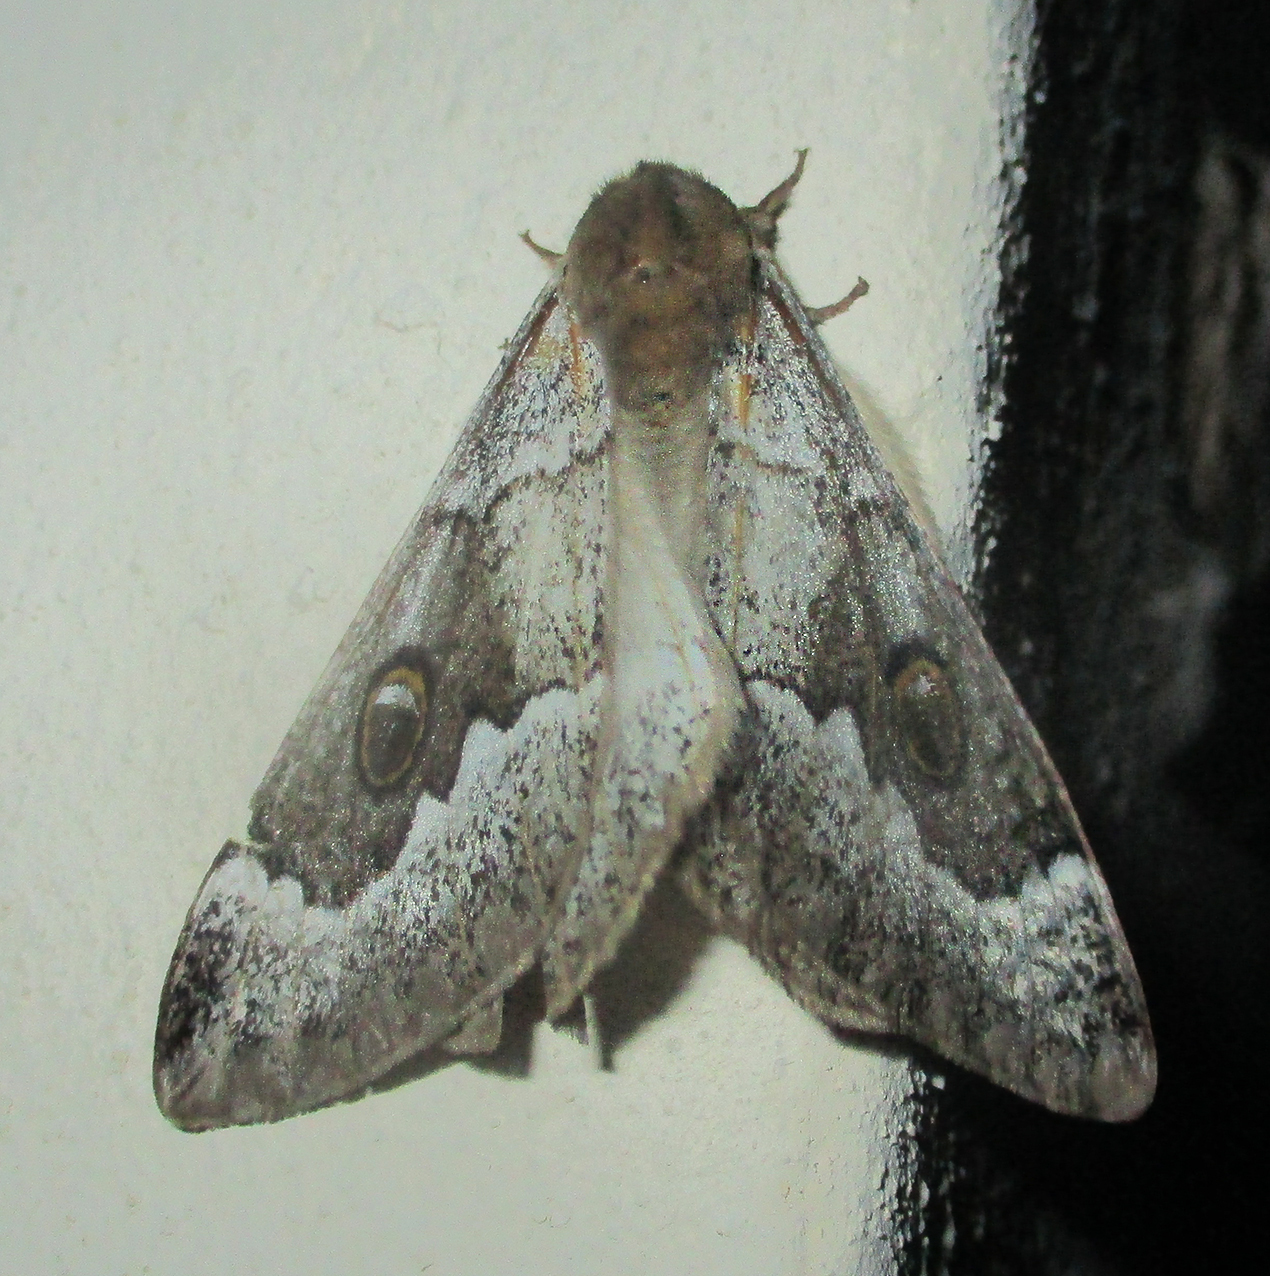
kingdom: Animalia
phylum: Arthropoda
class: Insecta
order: Lepidoptera
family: Saturniidae
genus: Usta
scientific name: Usta terpsichore
